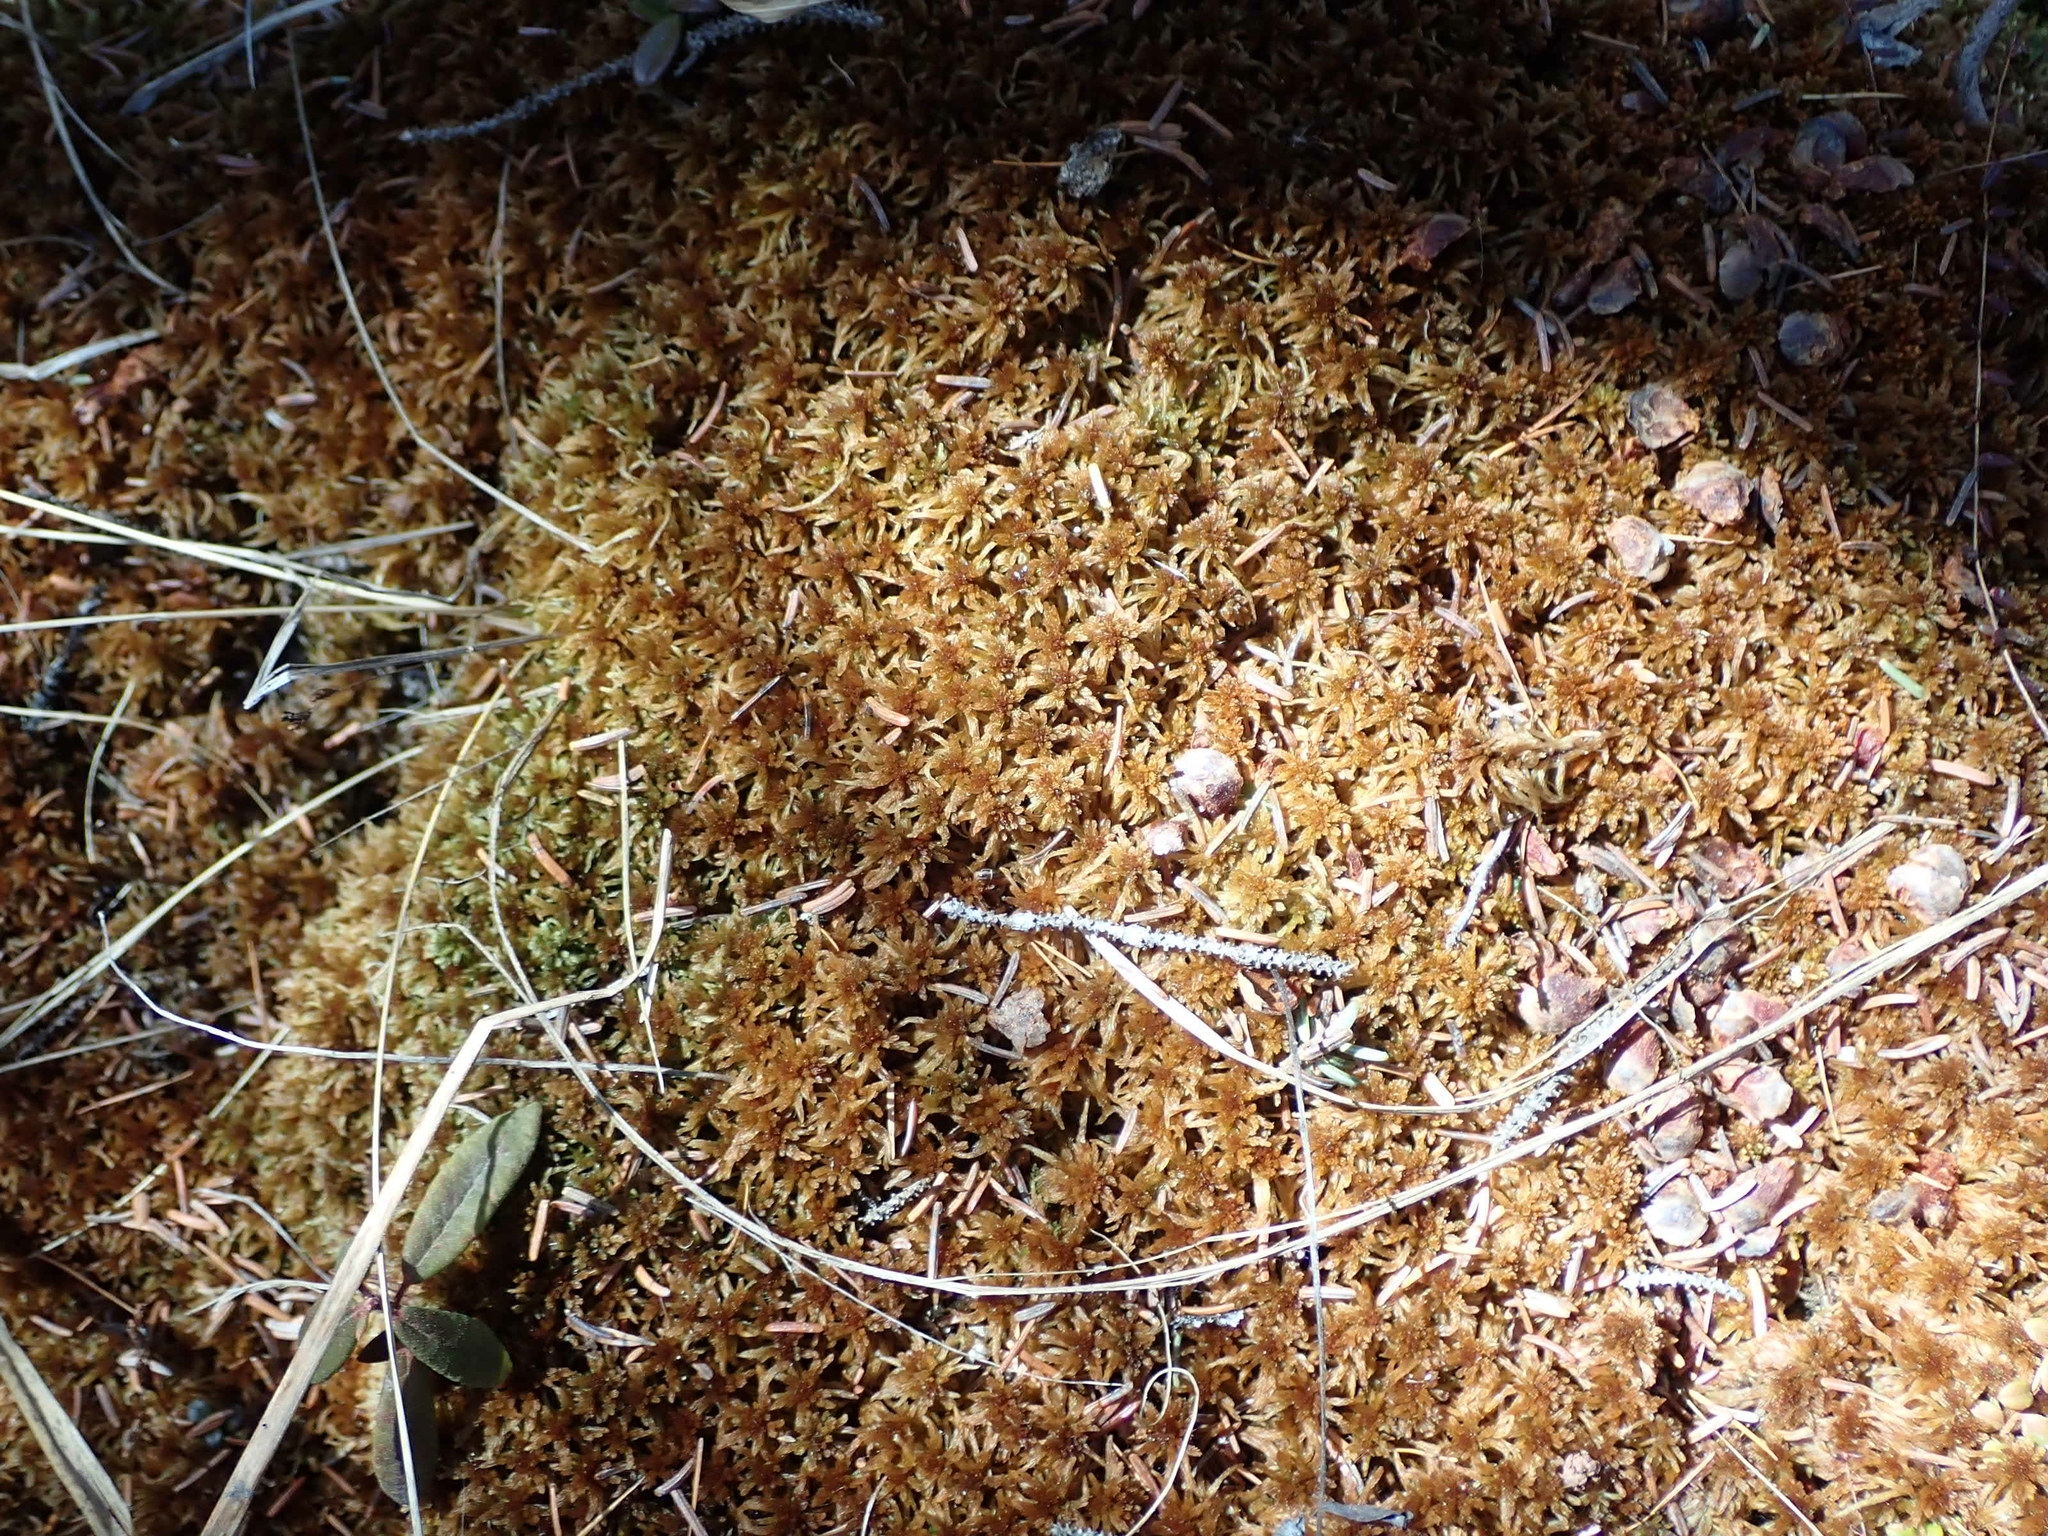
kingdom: Plantae
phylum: Bryophyta
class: Sphagnopsida
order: Sphagnales
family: Sphagnaceae
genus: Sphagnum
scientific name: Sphagnum fuscum
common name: Brown peat moss
